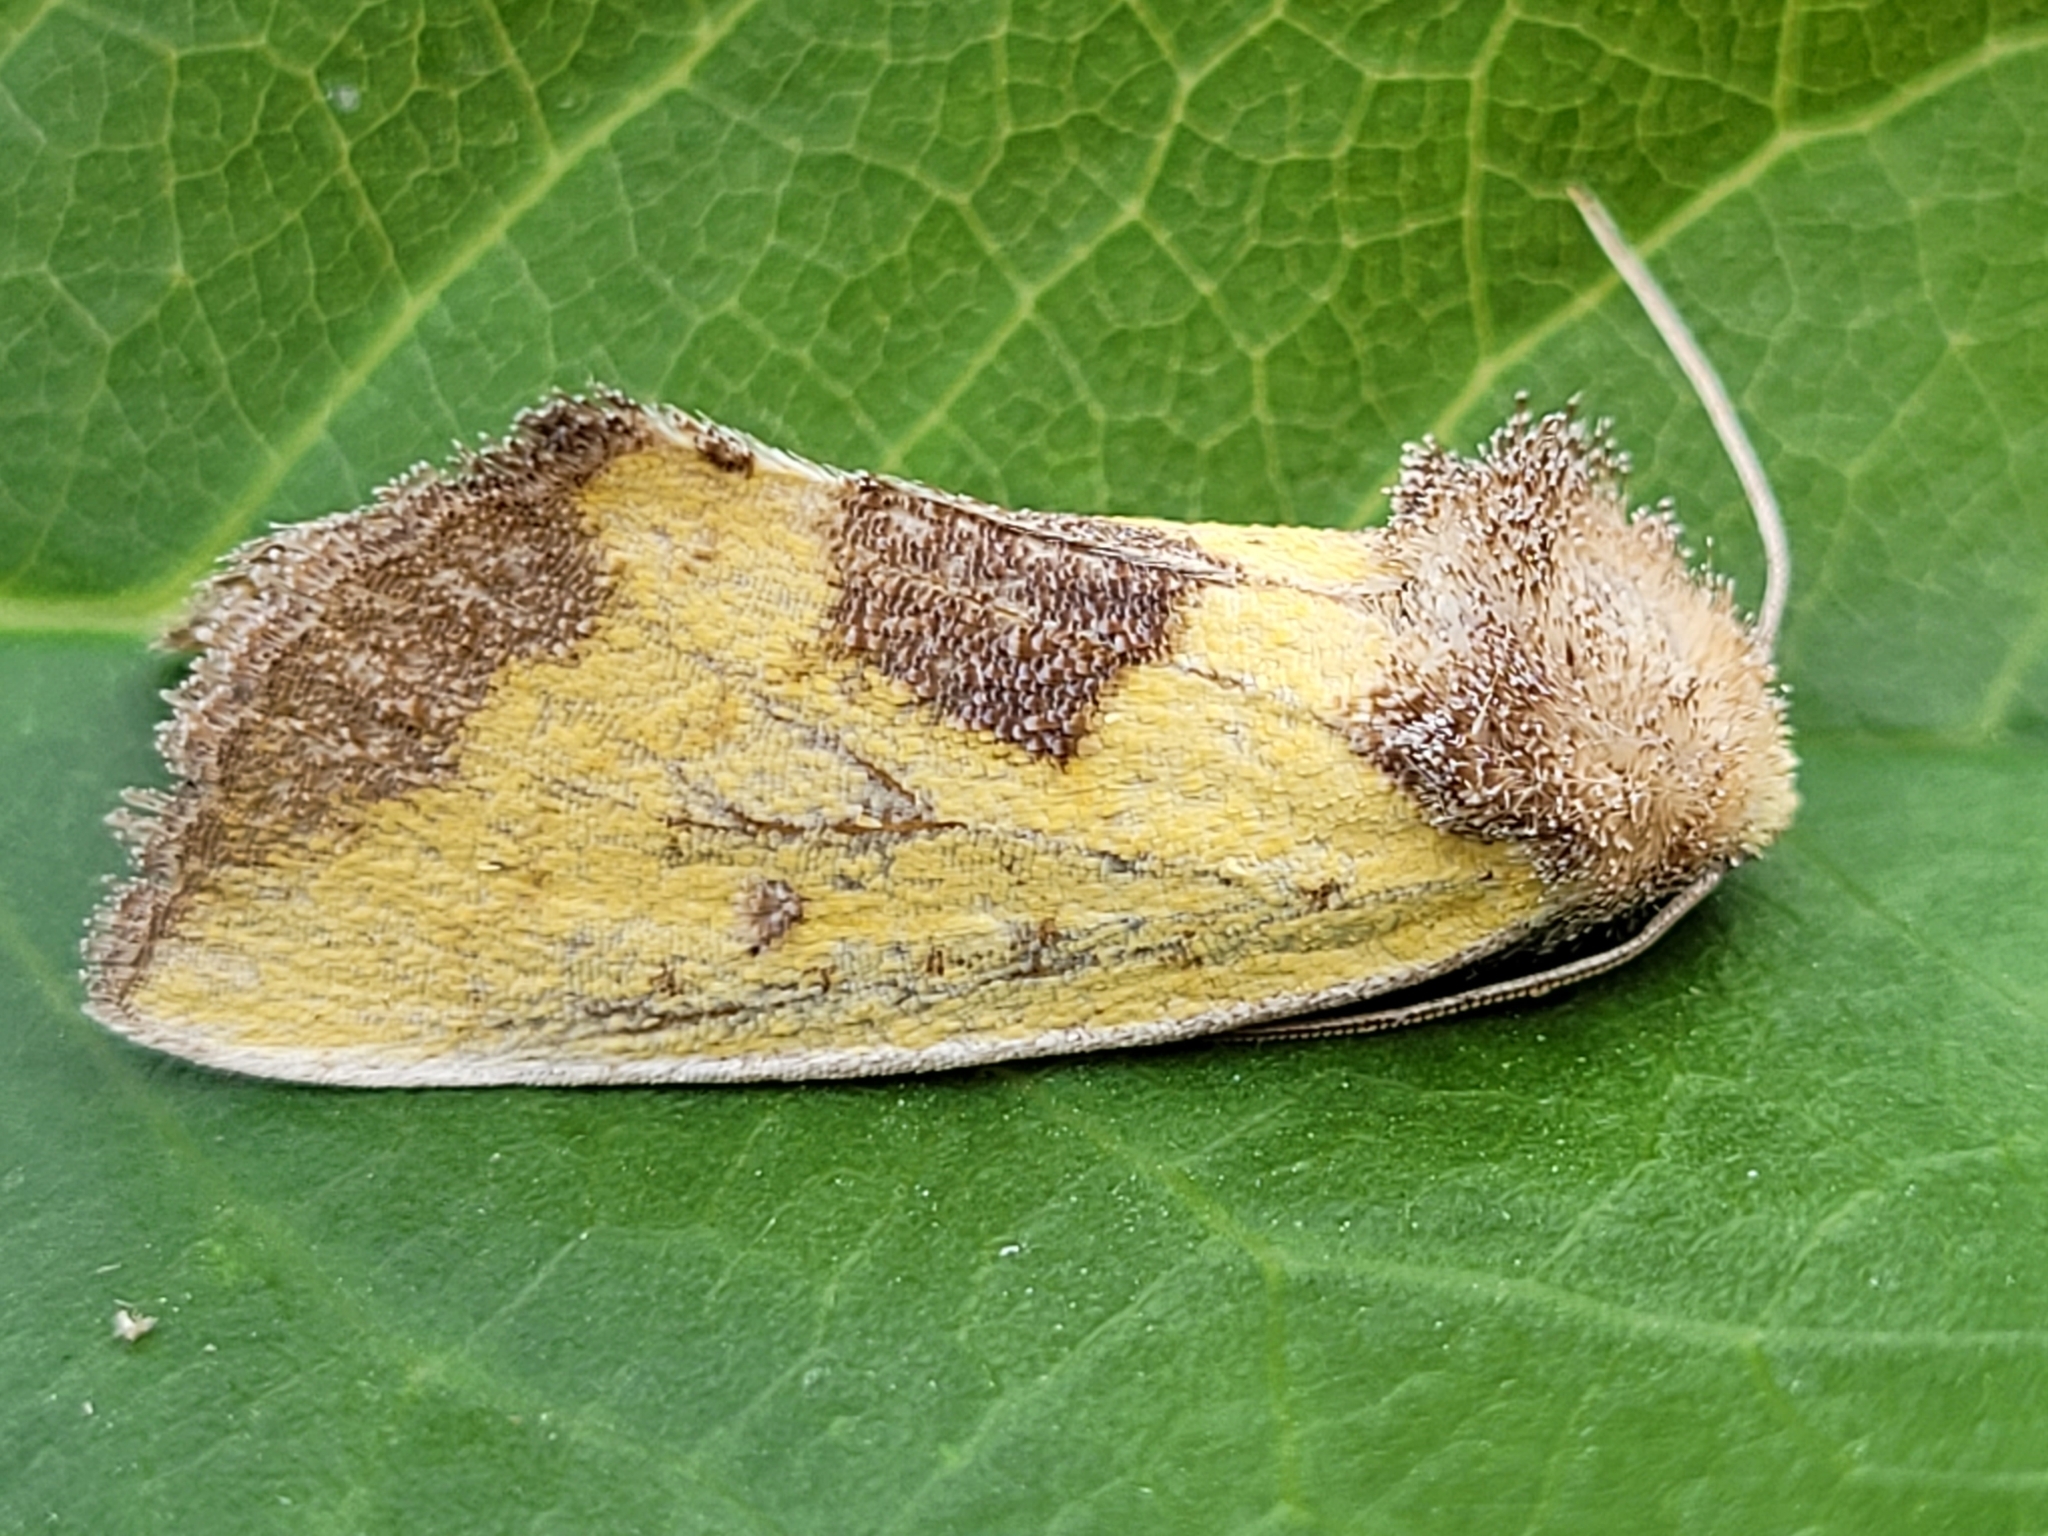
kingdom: Animalia
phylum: Arthropoda
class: Insecta
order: Lepidoptera
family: Noctuidae
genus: Stiria
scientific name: Stiria rugifrons
